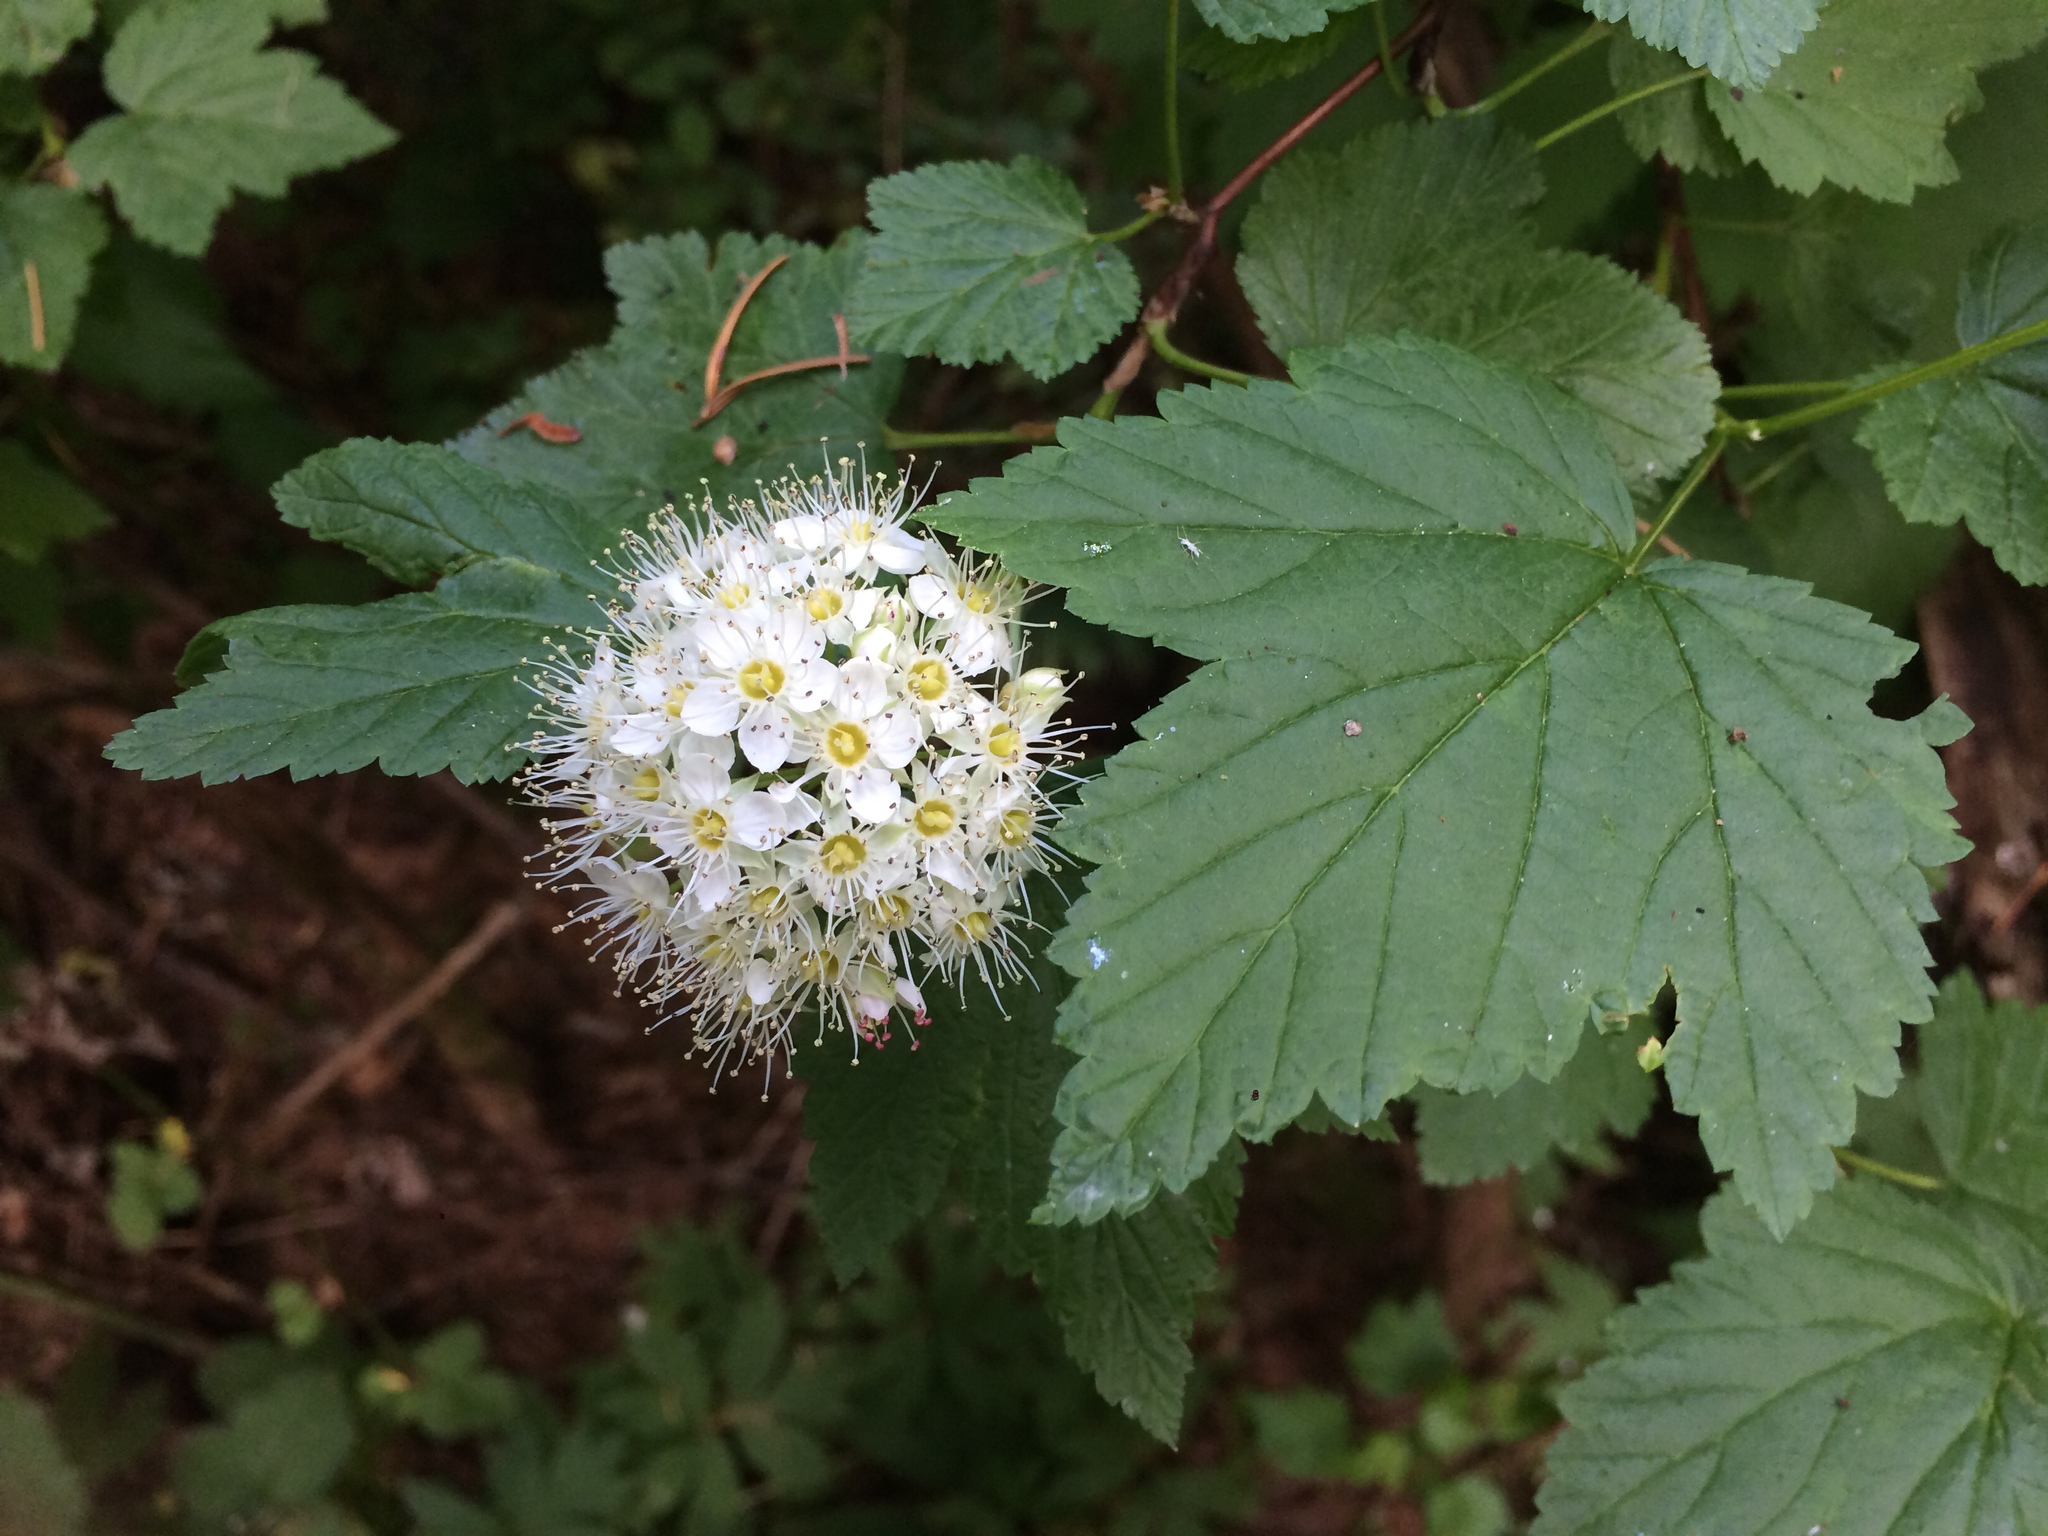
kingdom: Plantae
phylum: Tracheophyta
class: Magnoliopsida
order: Rosales
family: Rosaceae
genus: Physocarpus
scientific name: Physocarpus capitatus
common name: Pacific ninebark
